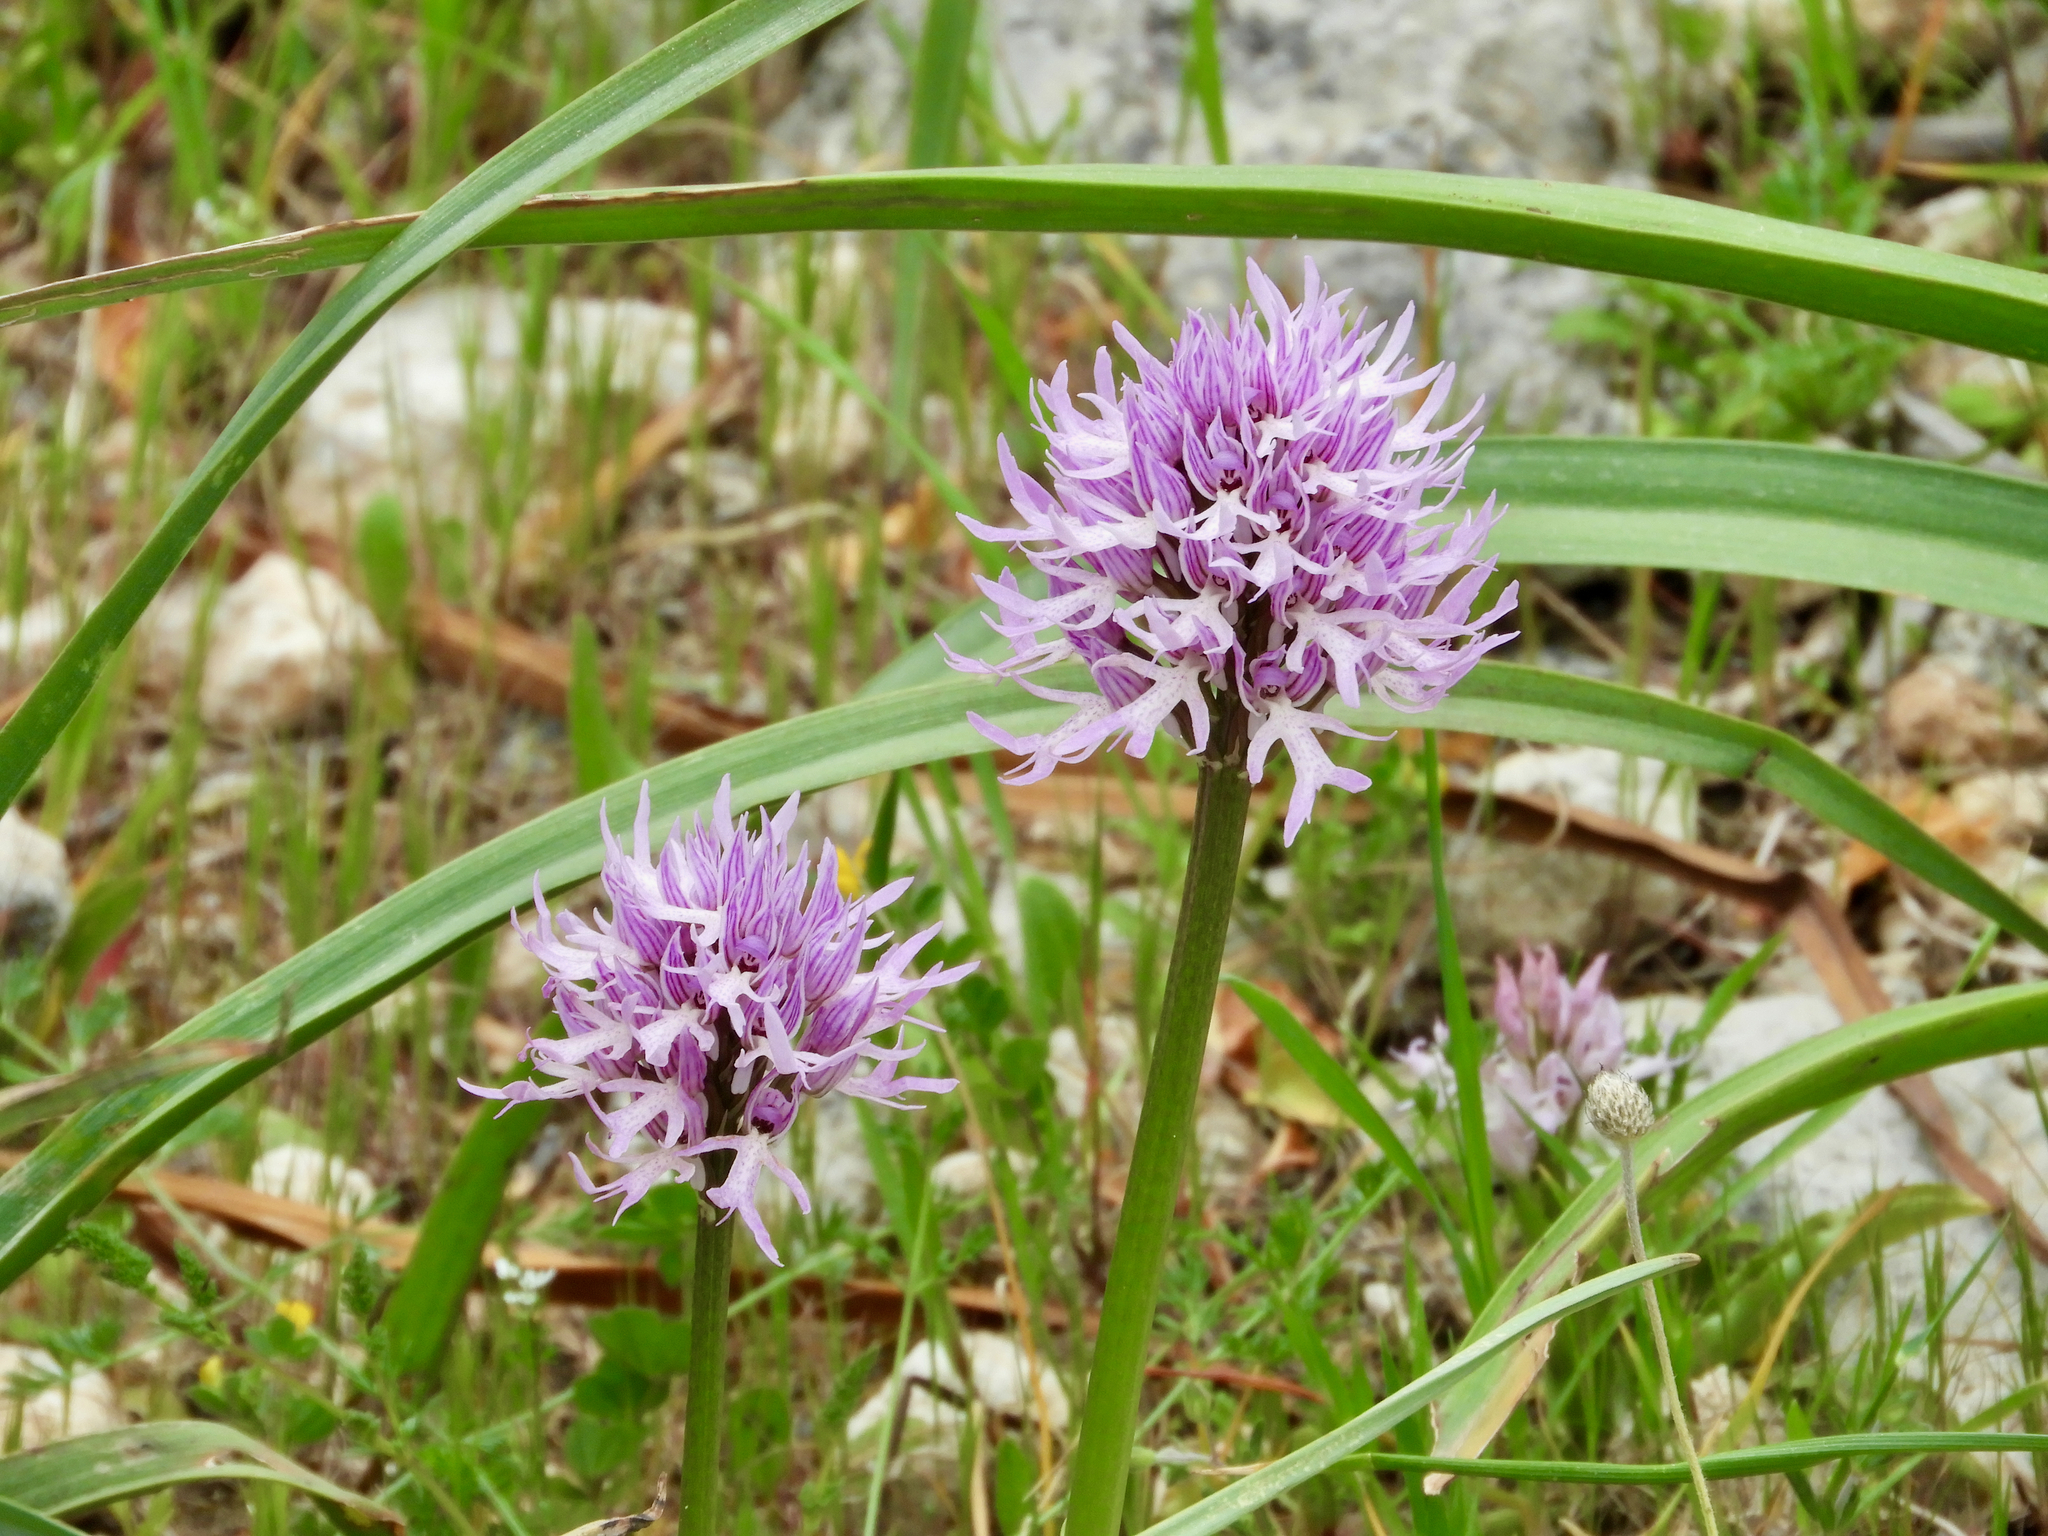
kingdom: Plantae
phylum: Tracheophyta
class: Liliopsida
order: Asparagales
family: Orchidaceae
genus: Orchis
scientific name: Orchis italica
